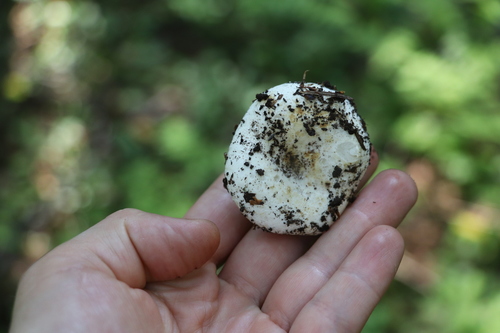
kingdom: Fungi
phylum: Basidiomycota
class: Agaricomycetes
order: Russulales
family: Russulaceae
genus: Russula
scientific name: Russula delica
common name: Milk white brittlegill
